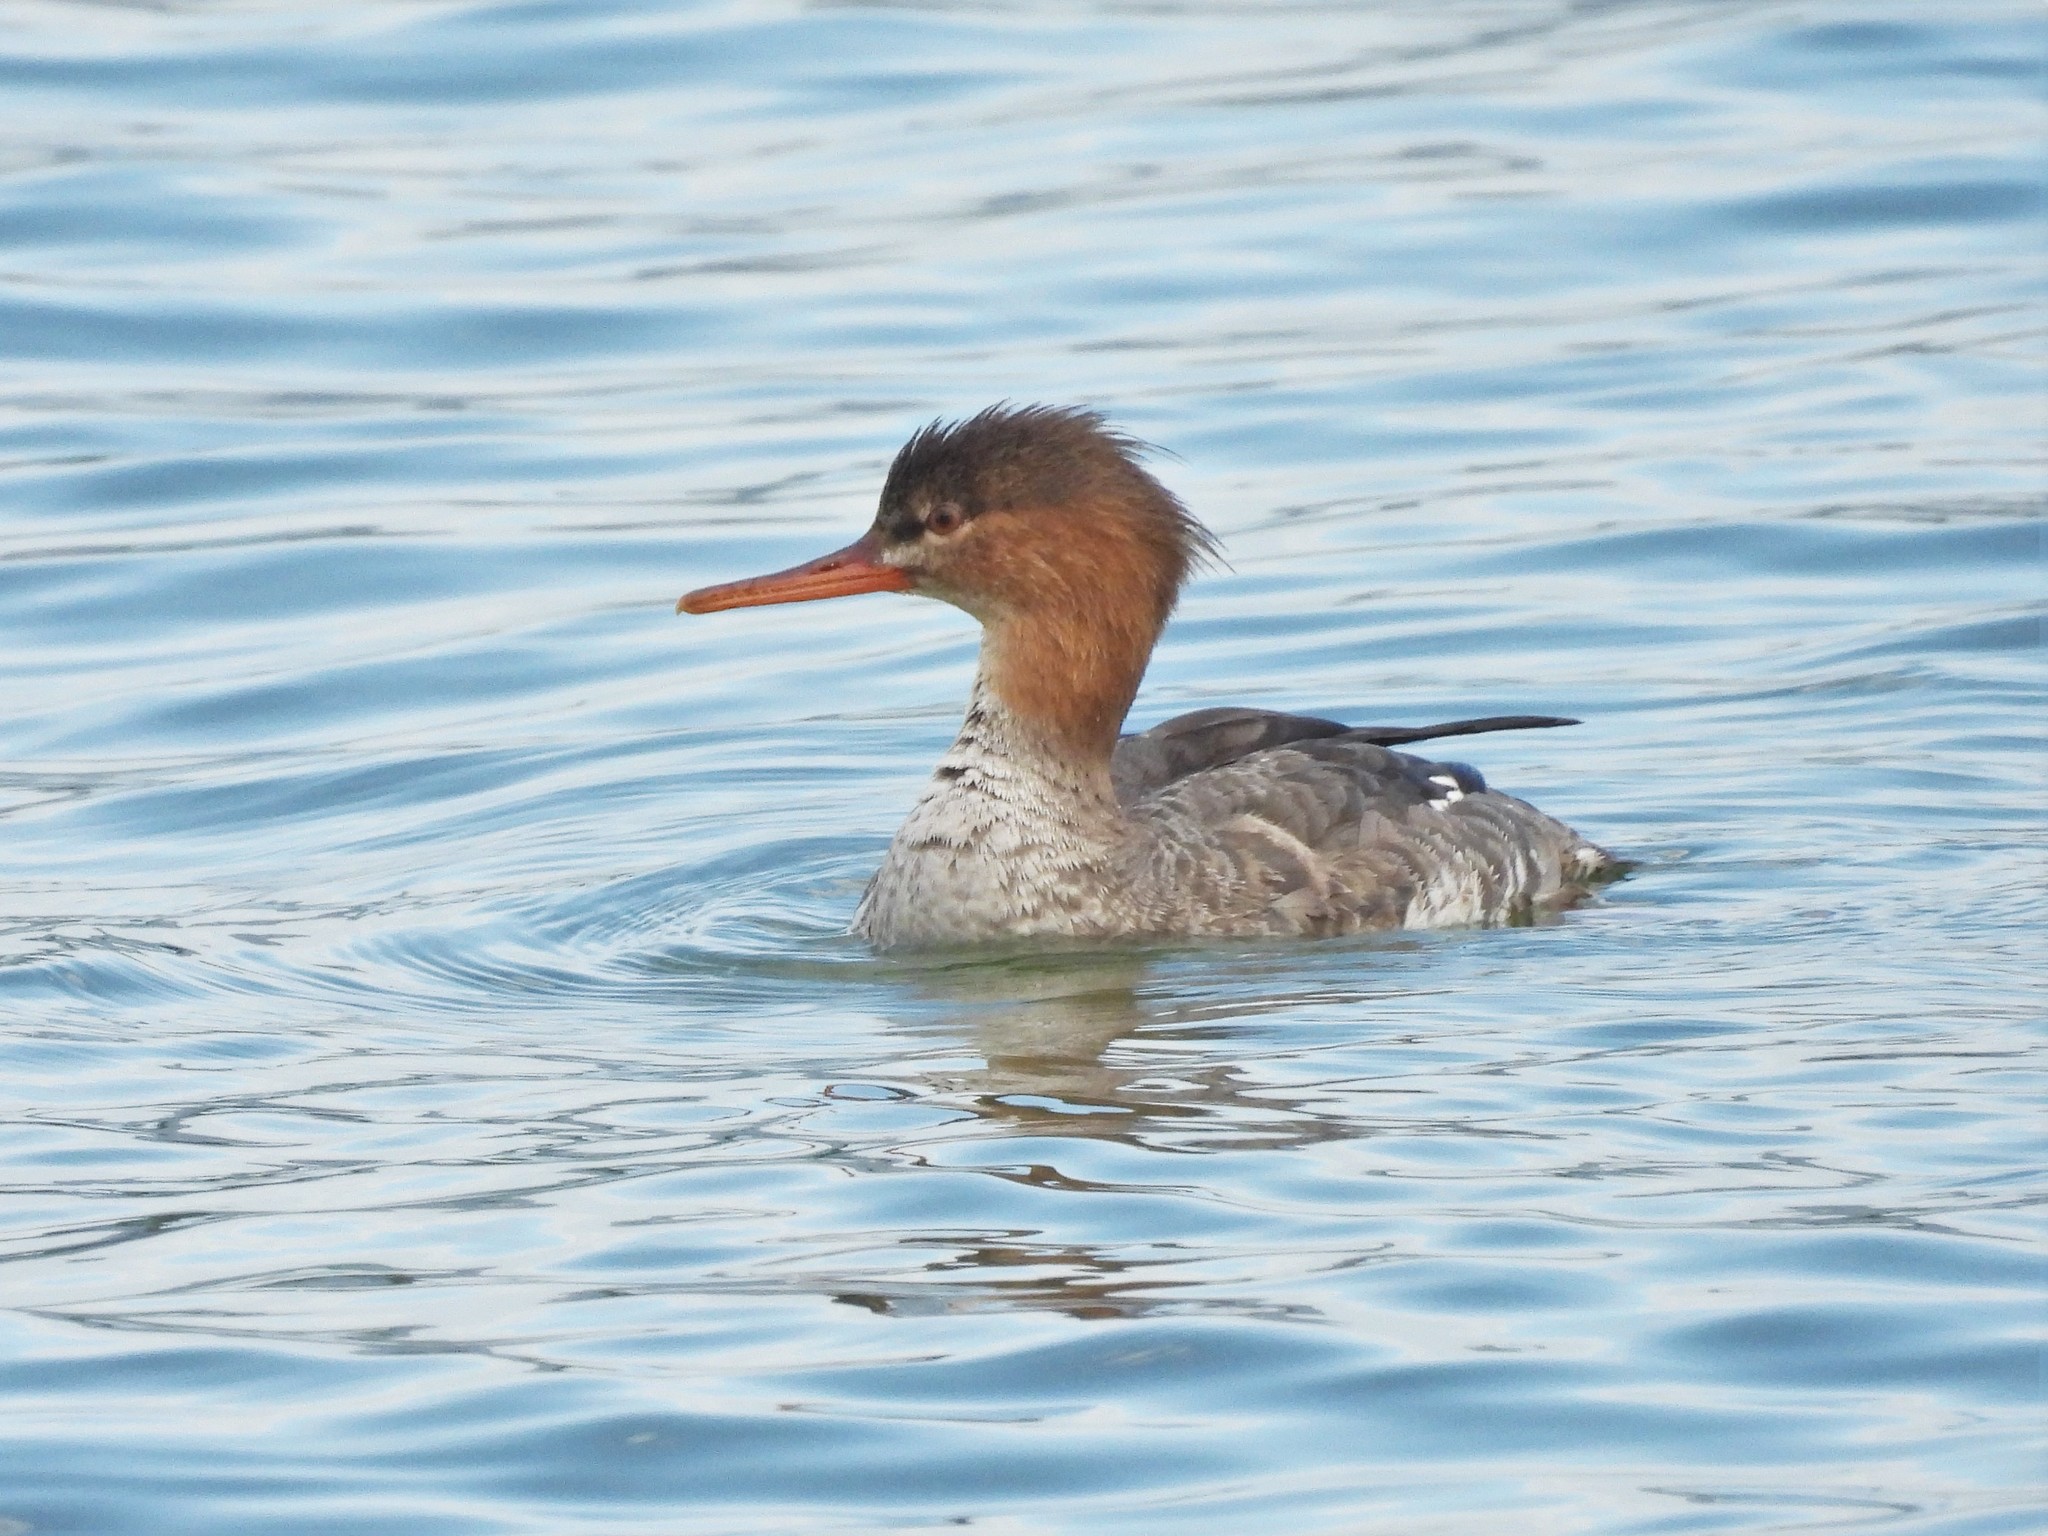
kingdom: Animalia
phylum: Chordata
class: Aves
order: Anseriformes
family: Anatidae
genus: Mergus
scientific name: Mergus serrator
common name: Red-breasted merganser
